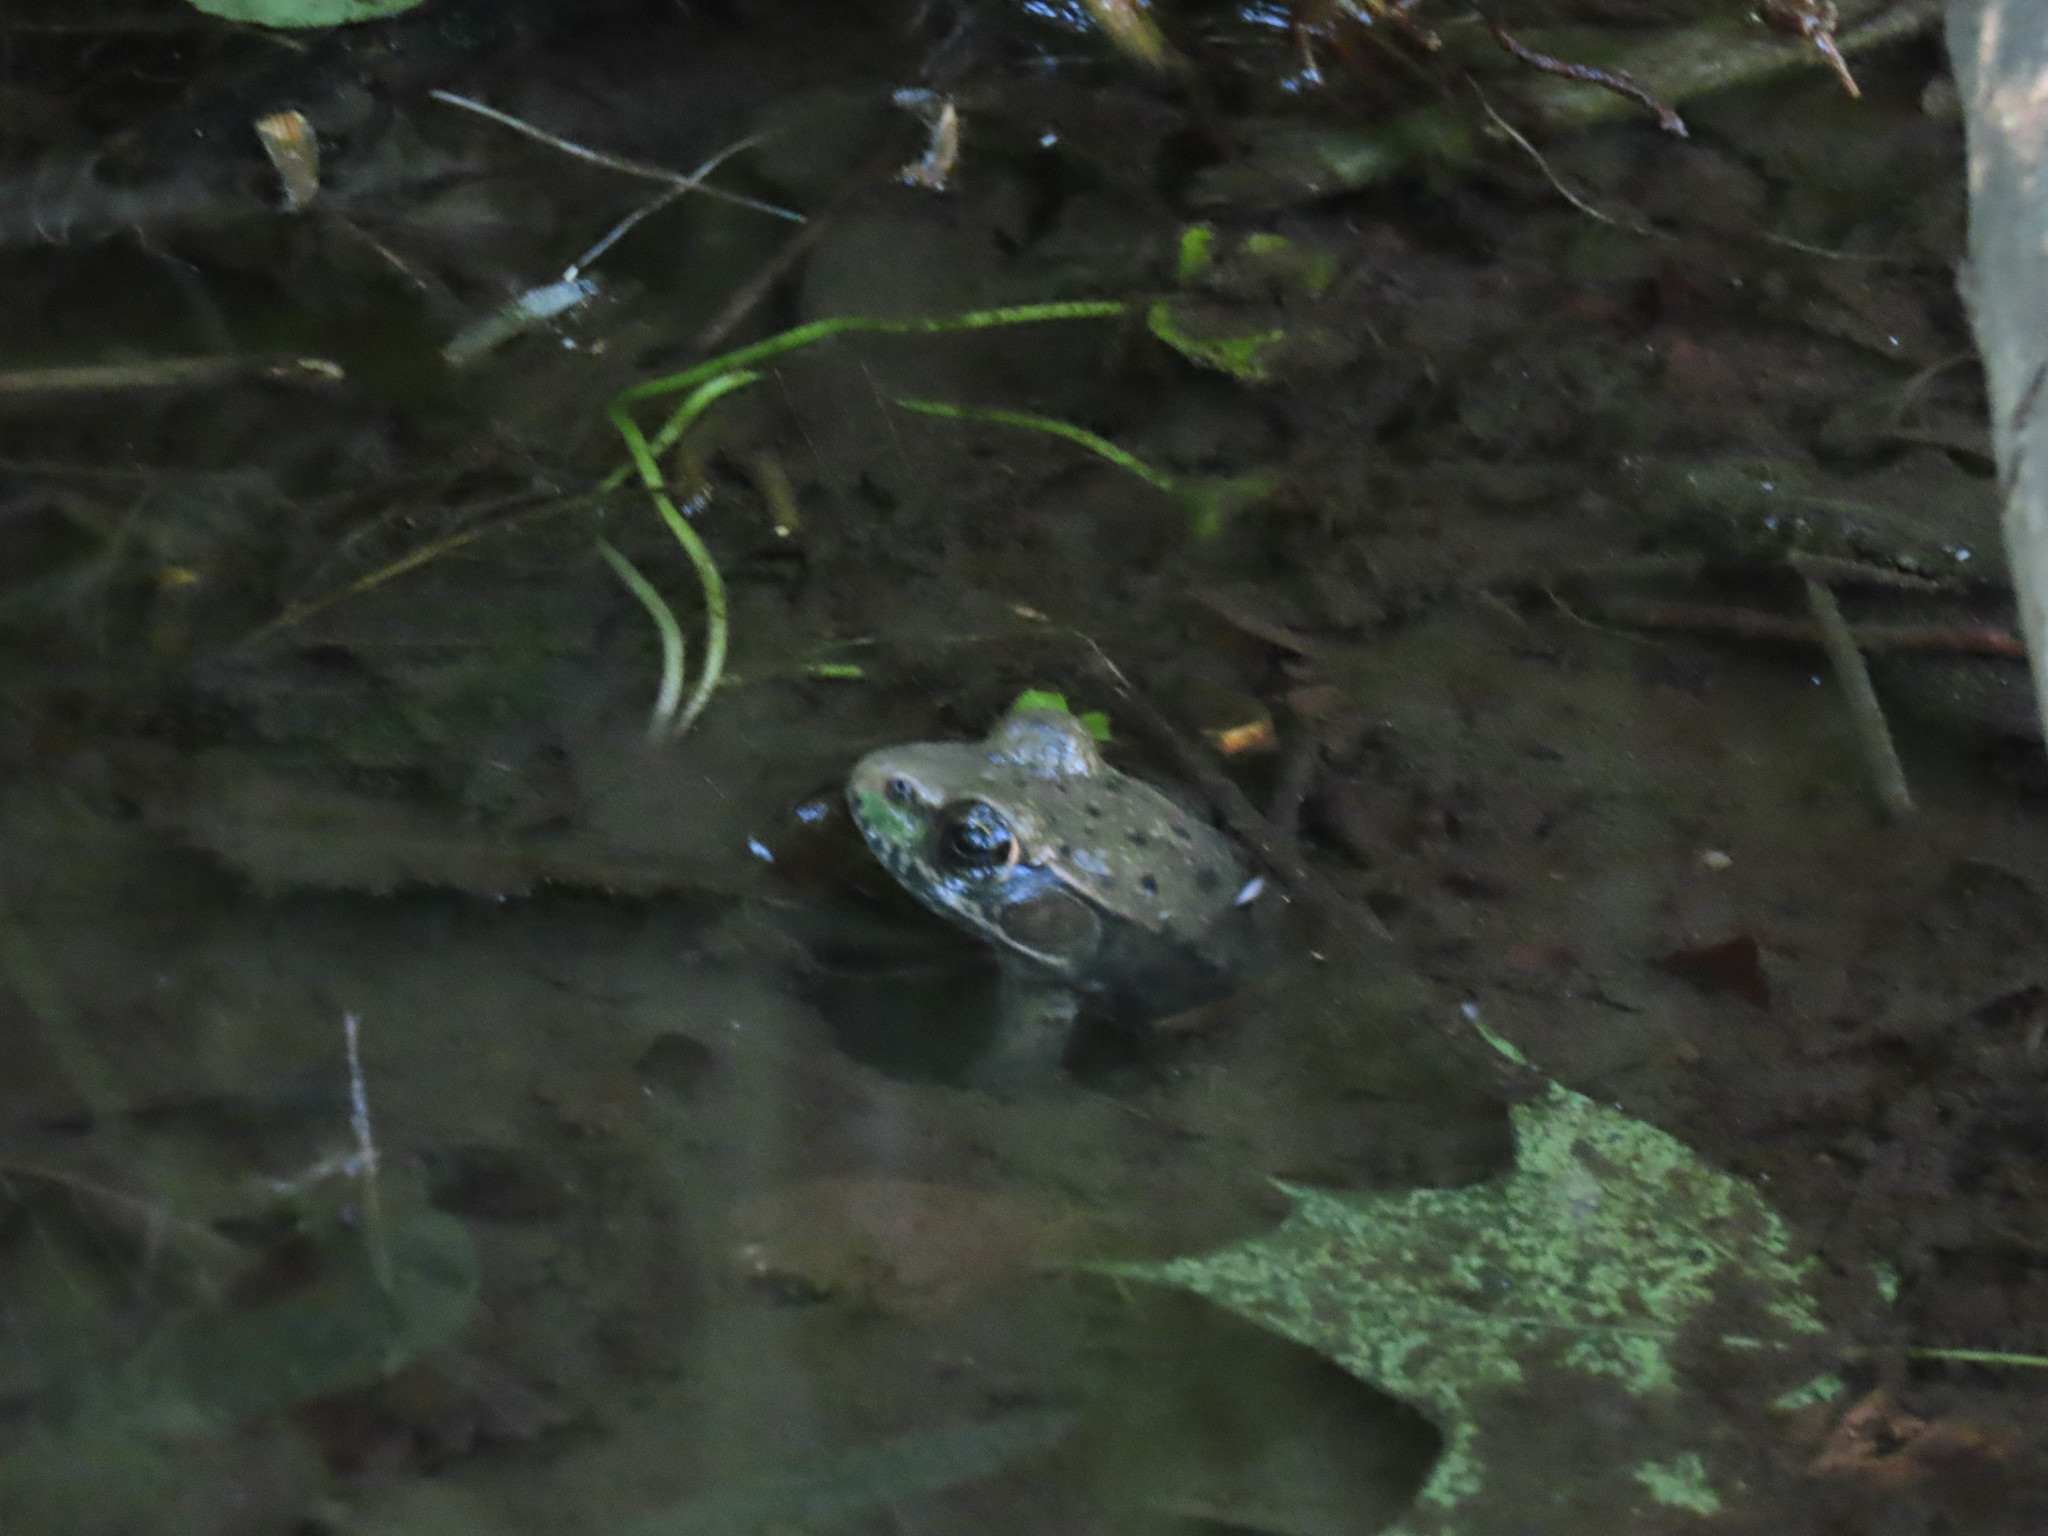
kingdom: Animalia
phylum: Chordata
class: Amphibia
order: Anura
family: Ranidae
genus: Lithobates
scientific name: Lithobates clamitans
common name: Green frog
